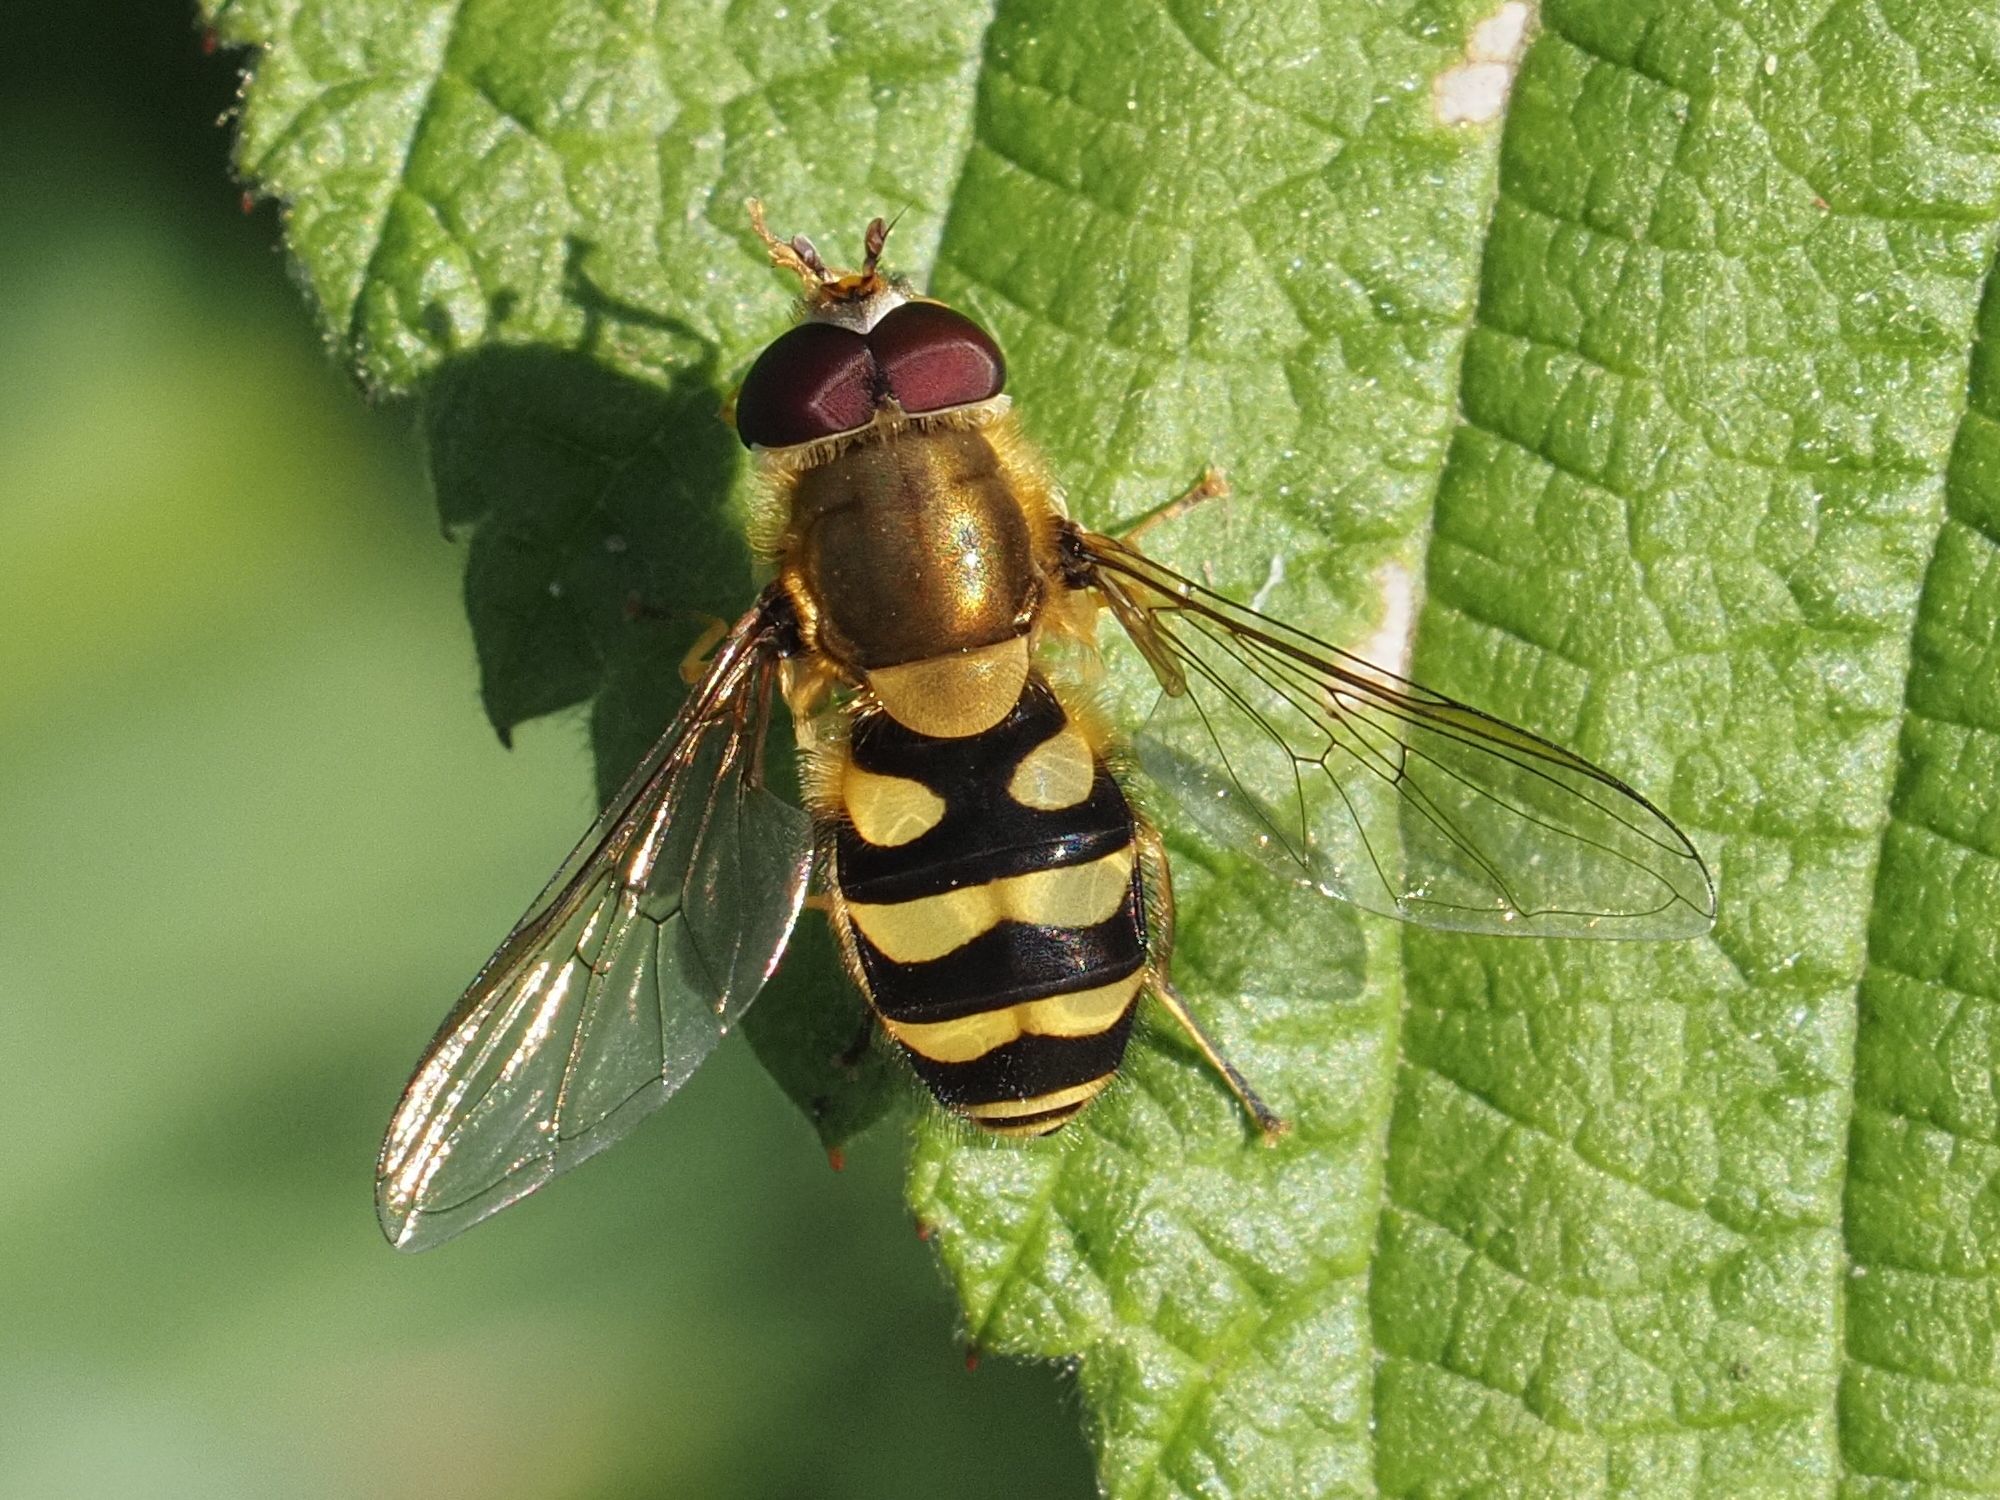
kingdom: Animalia
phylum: Arthropoda
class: Insecta
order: Diptera
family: Syrphidae
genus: Syrphus
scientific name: Syrphus
